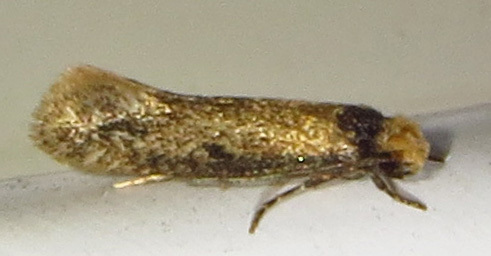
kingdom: Animalia
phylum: Arthropoda
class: Insecta
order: Lepidoptera
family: Meessiidae
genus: Homostinea
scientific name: Homostinea curviliniella
